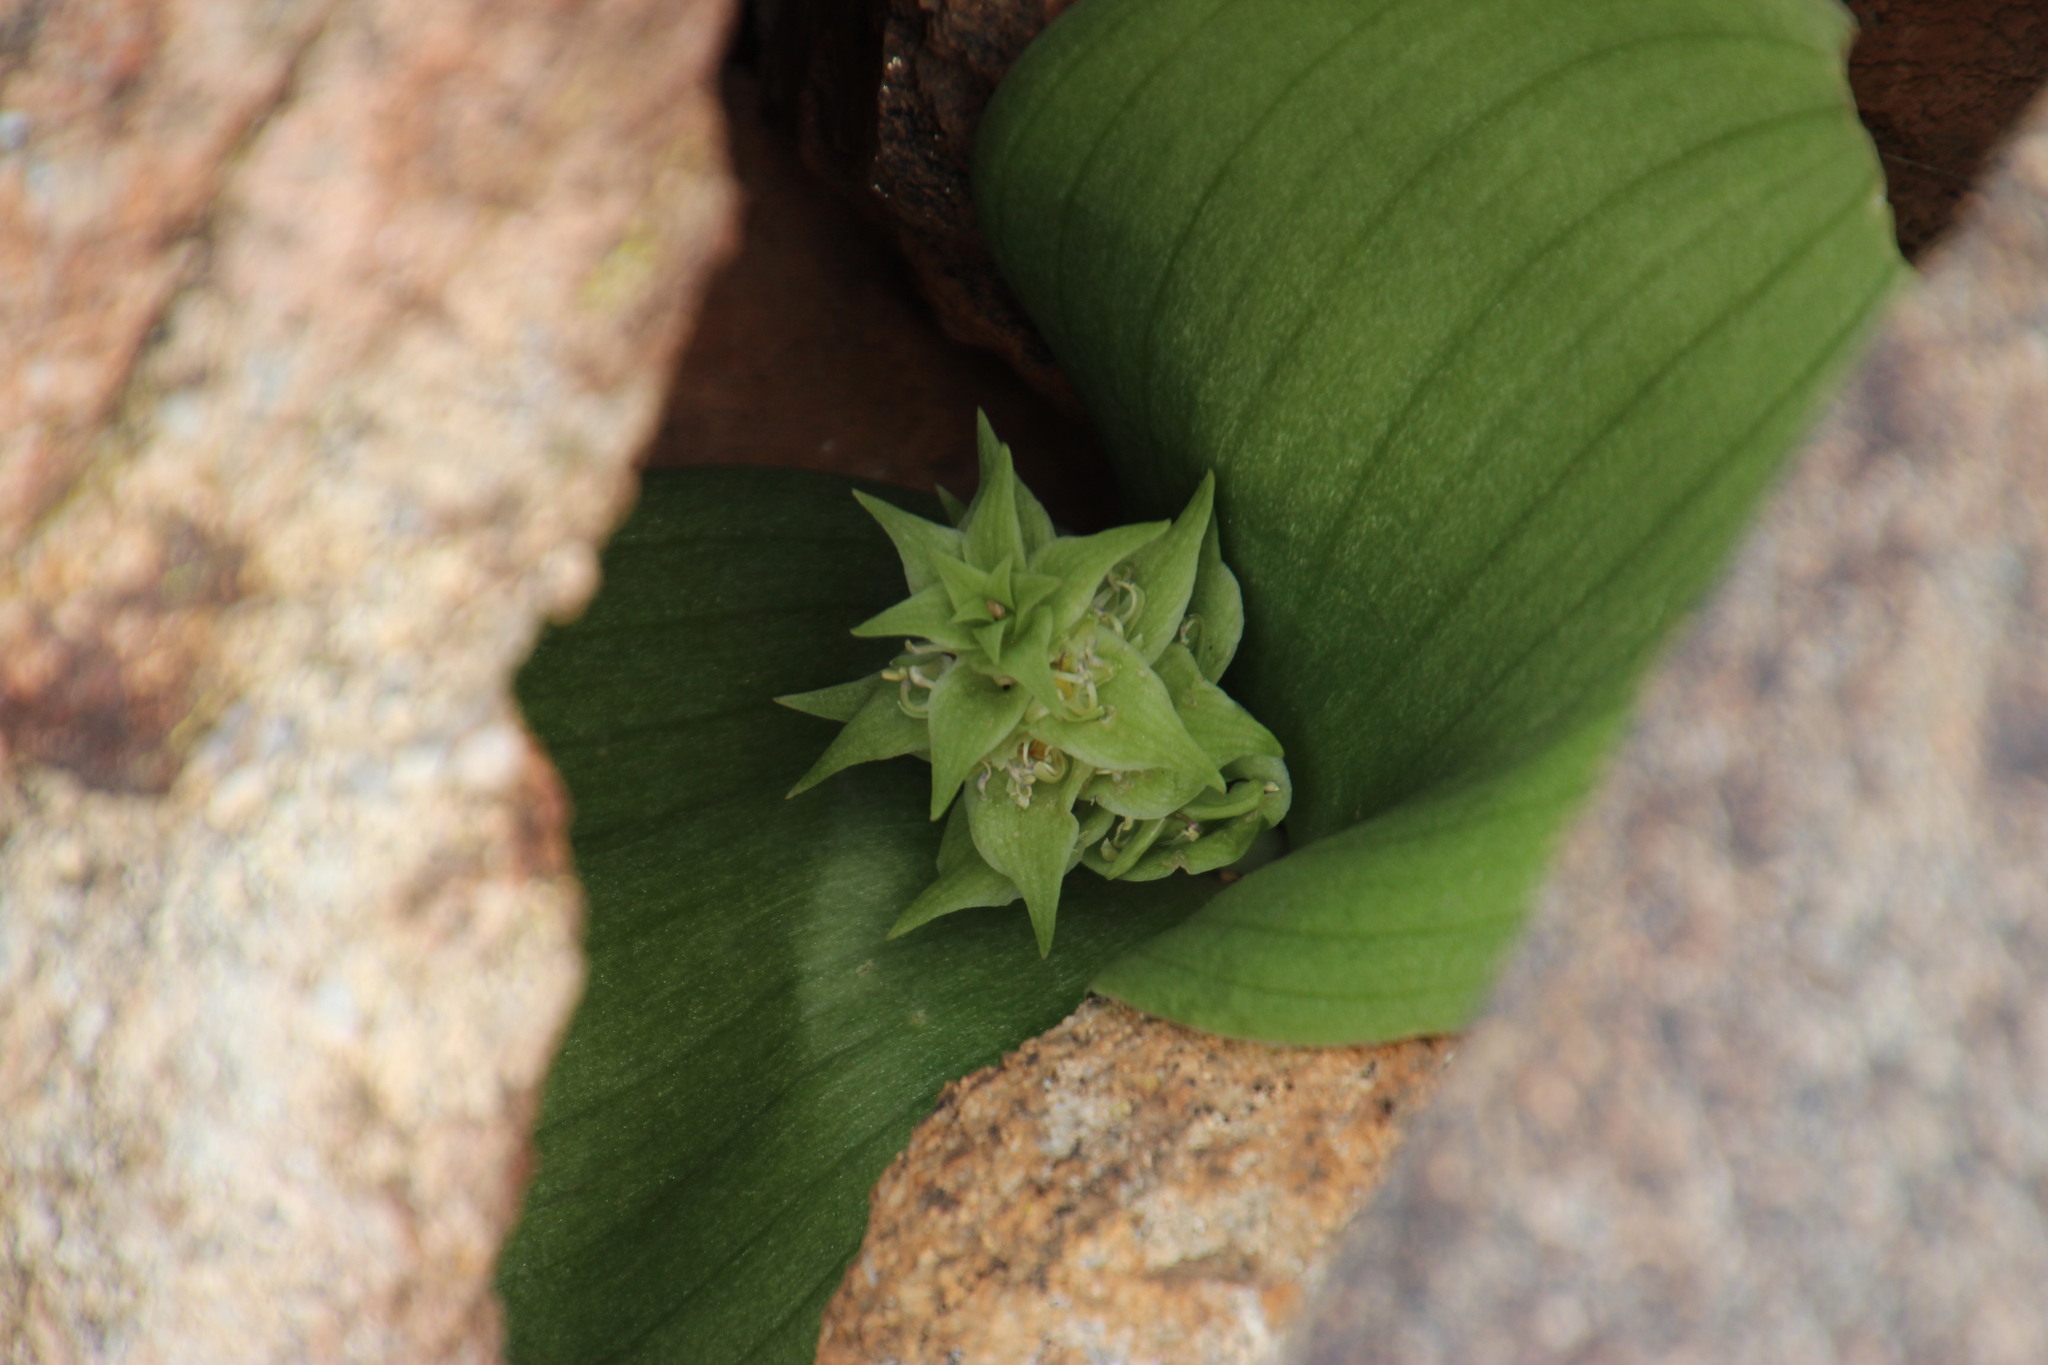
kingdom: Plantae
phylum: Tracheophyta
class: Liliopsida
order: Asparagales
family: Asparagaceae
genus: Massonia
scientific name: Massonia bifolia
